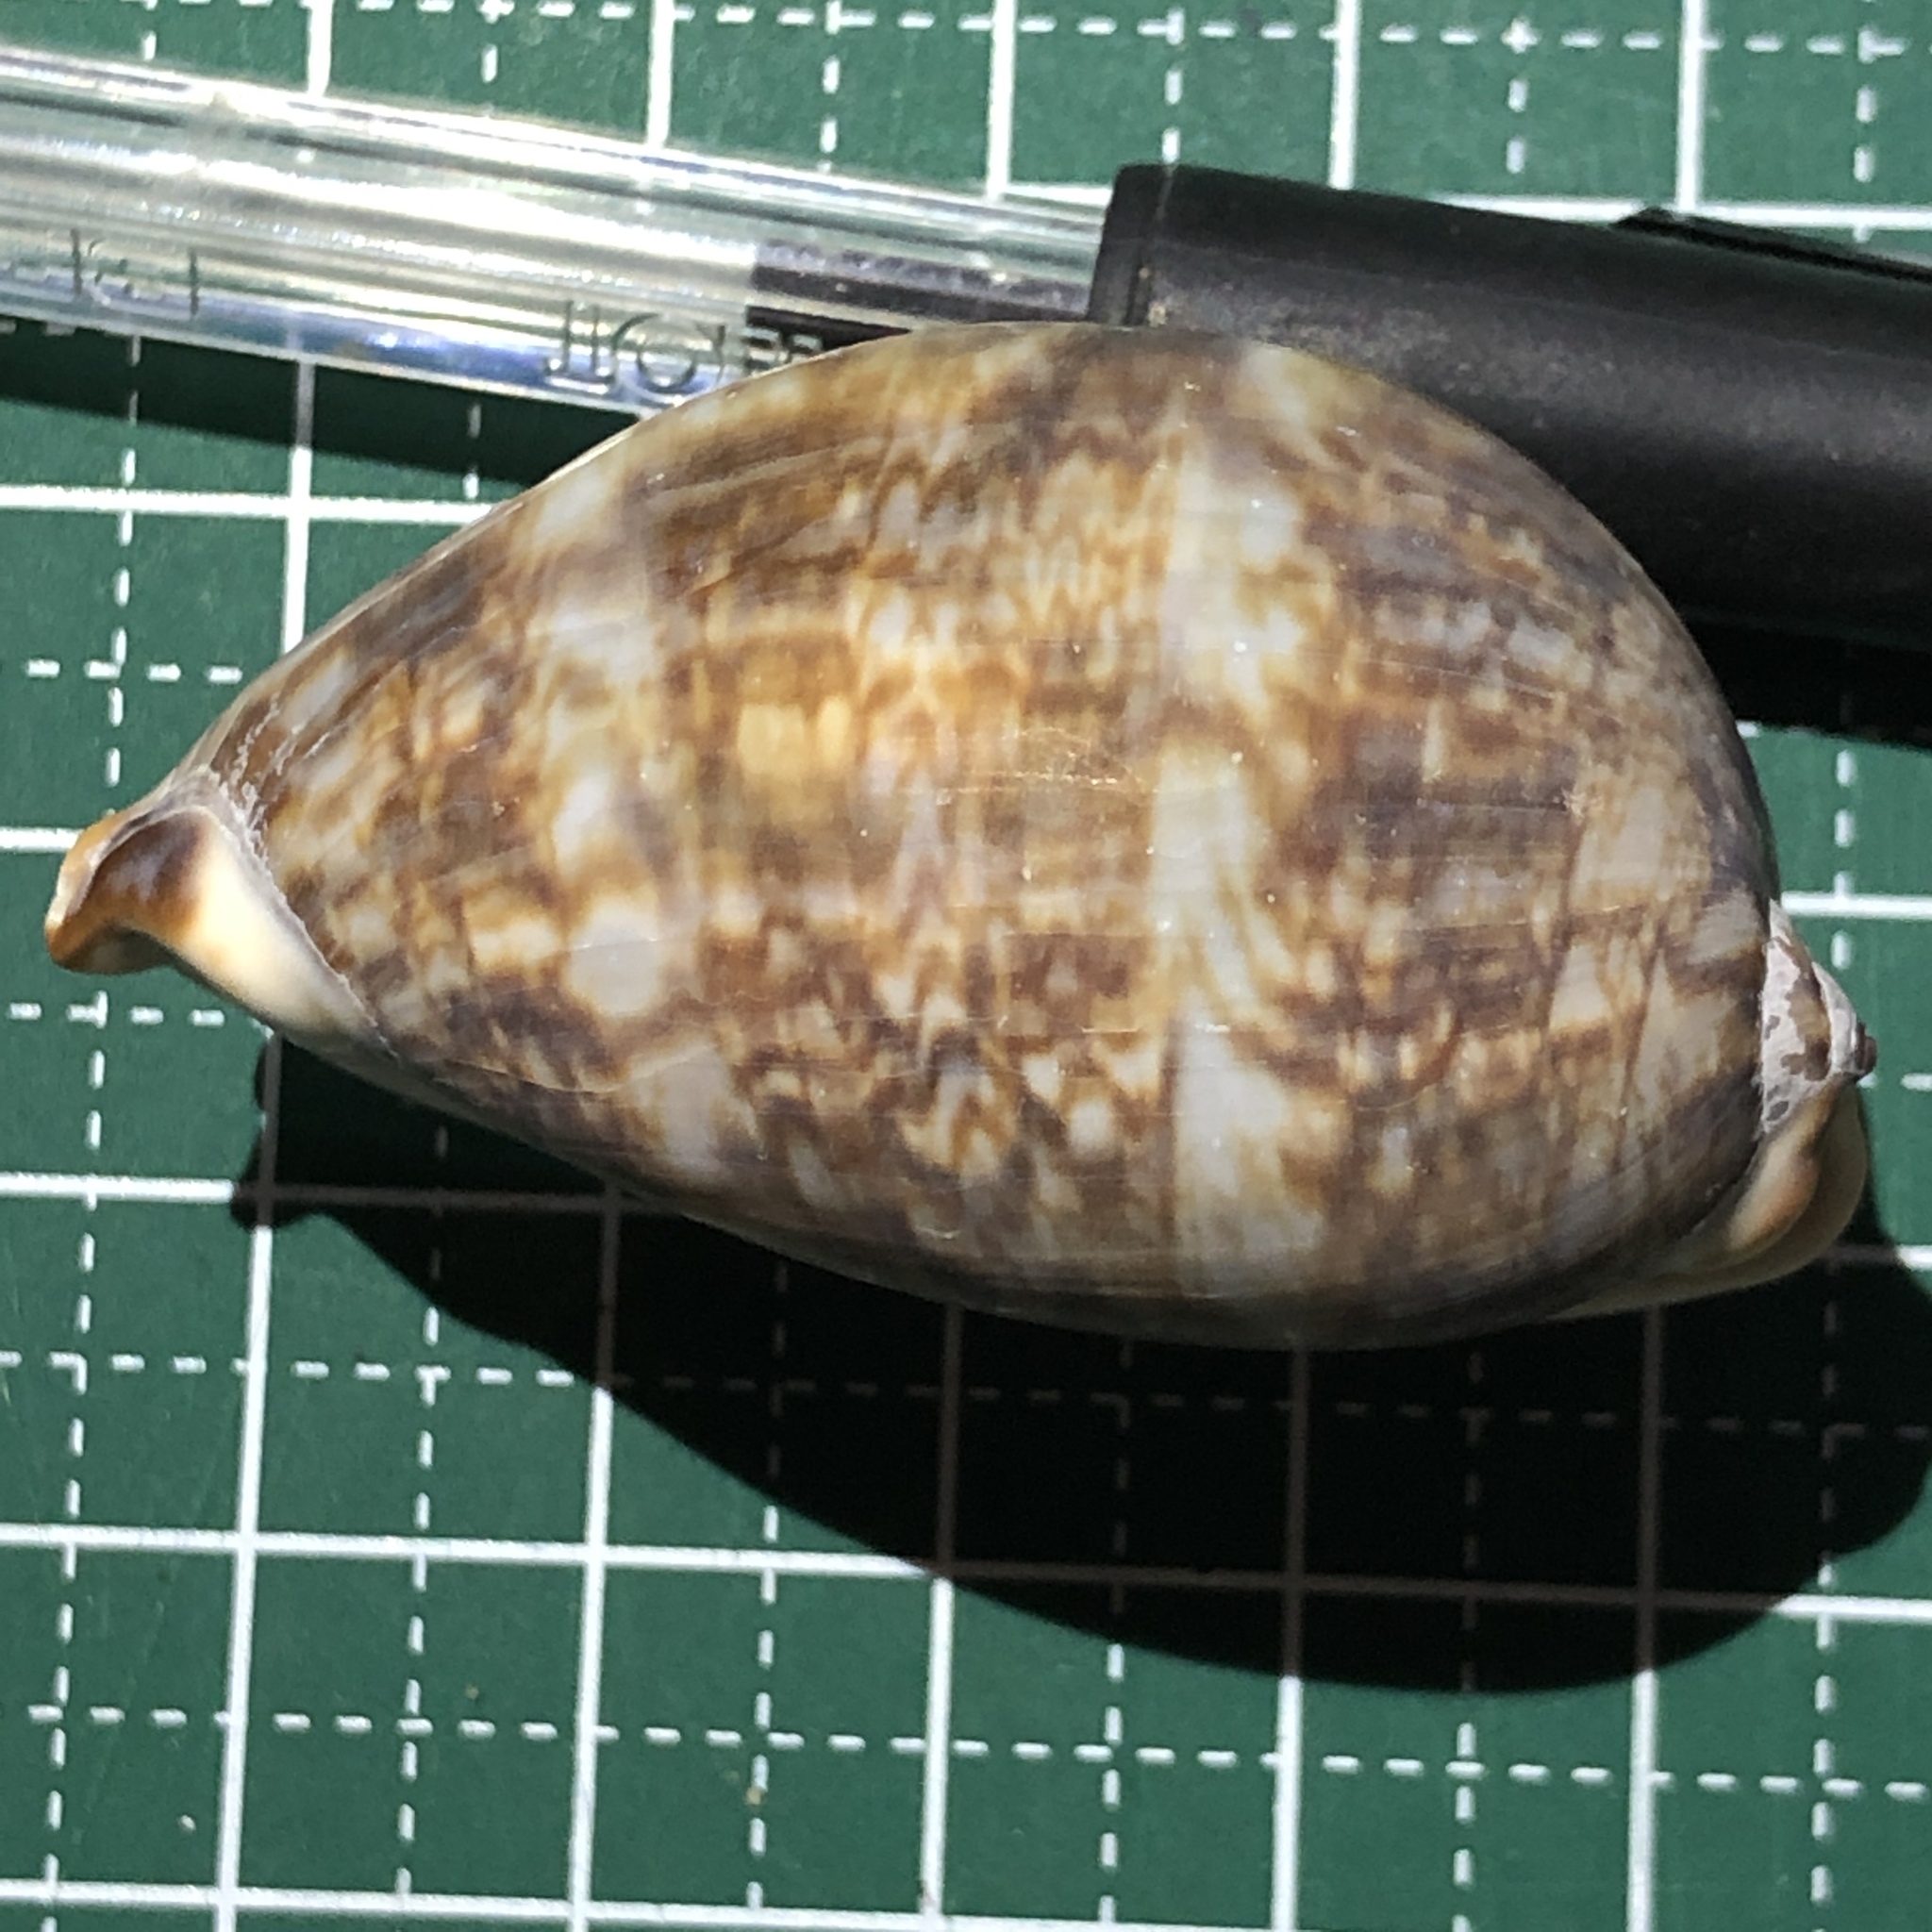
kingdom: Animalia
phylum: Mollusca
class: Gastropoda
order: Littorinimorpha
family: Cypraeidae
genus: Mauritia
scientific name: Mauritia arabica
